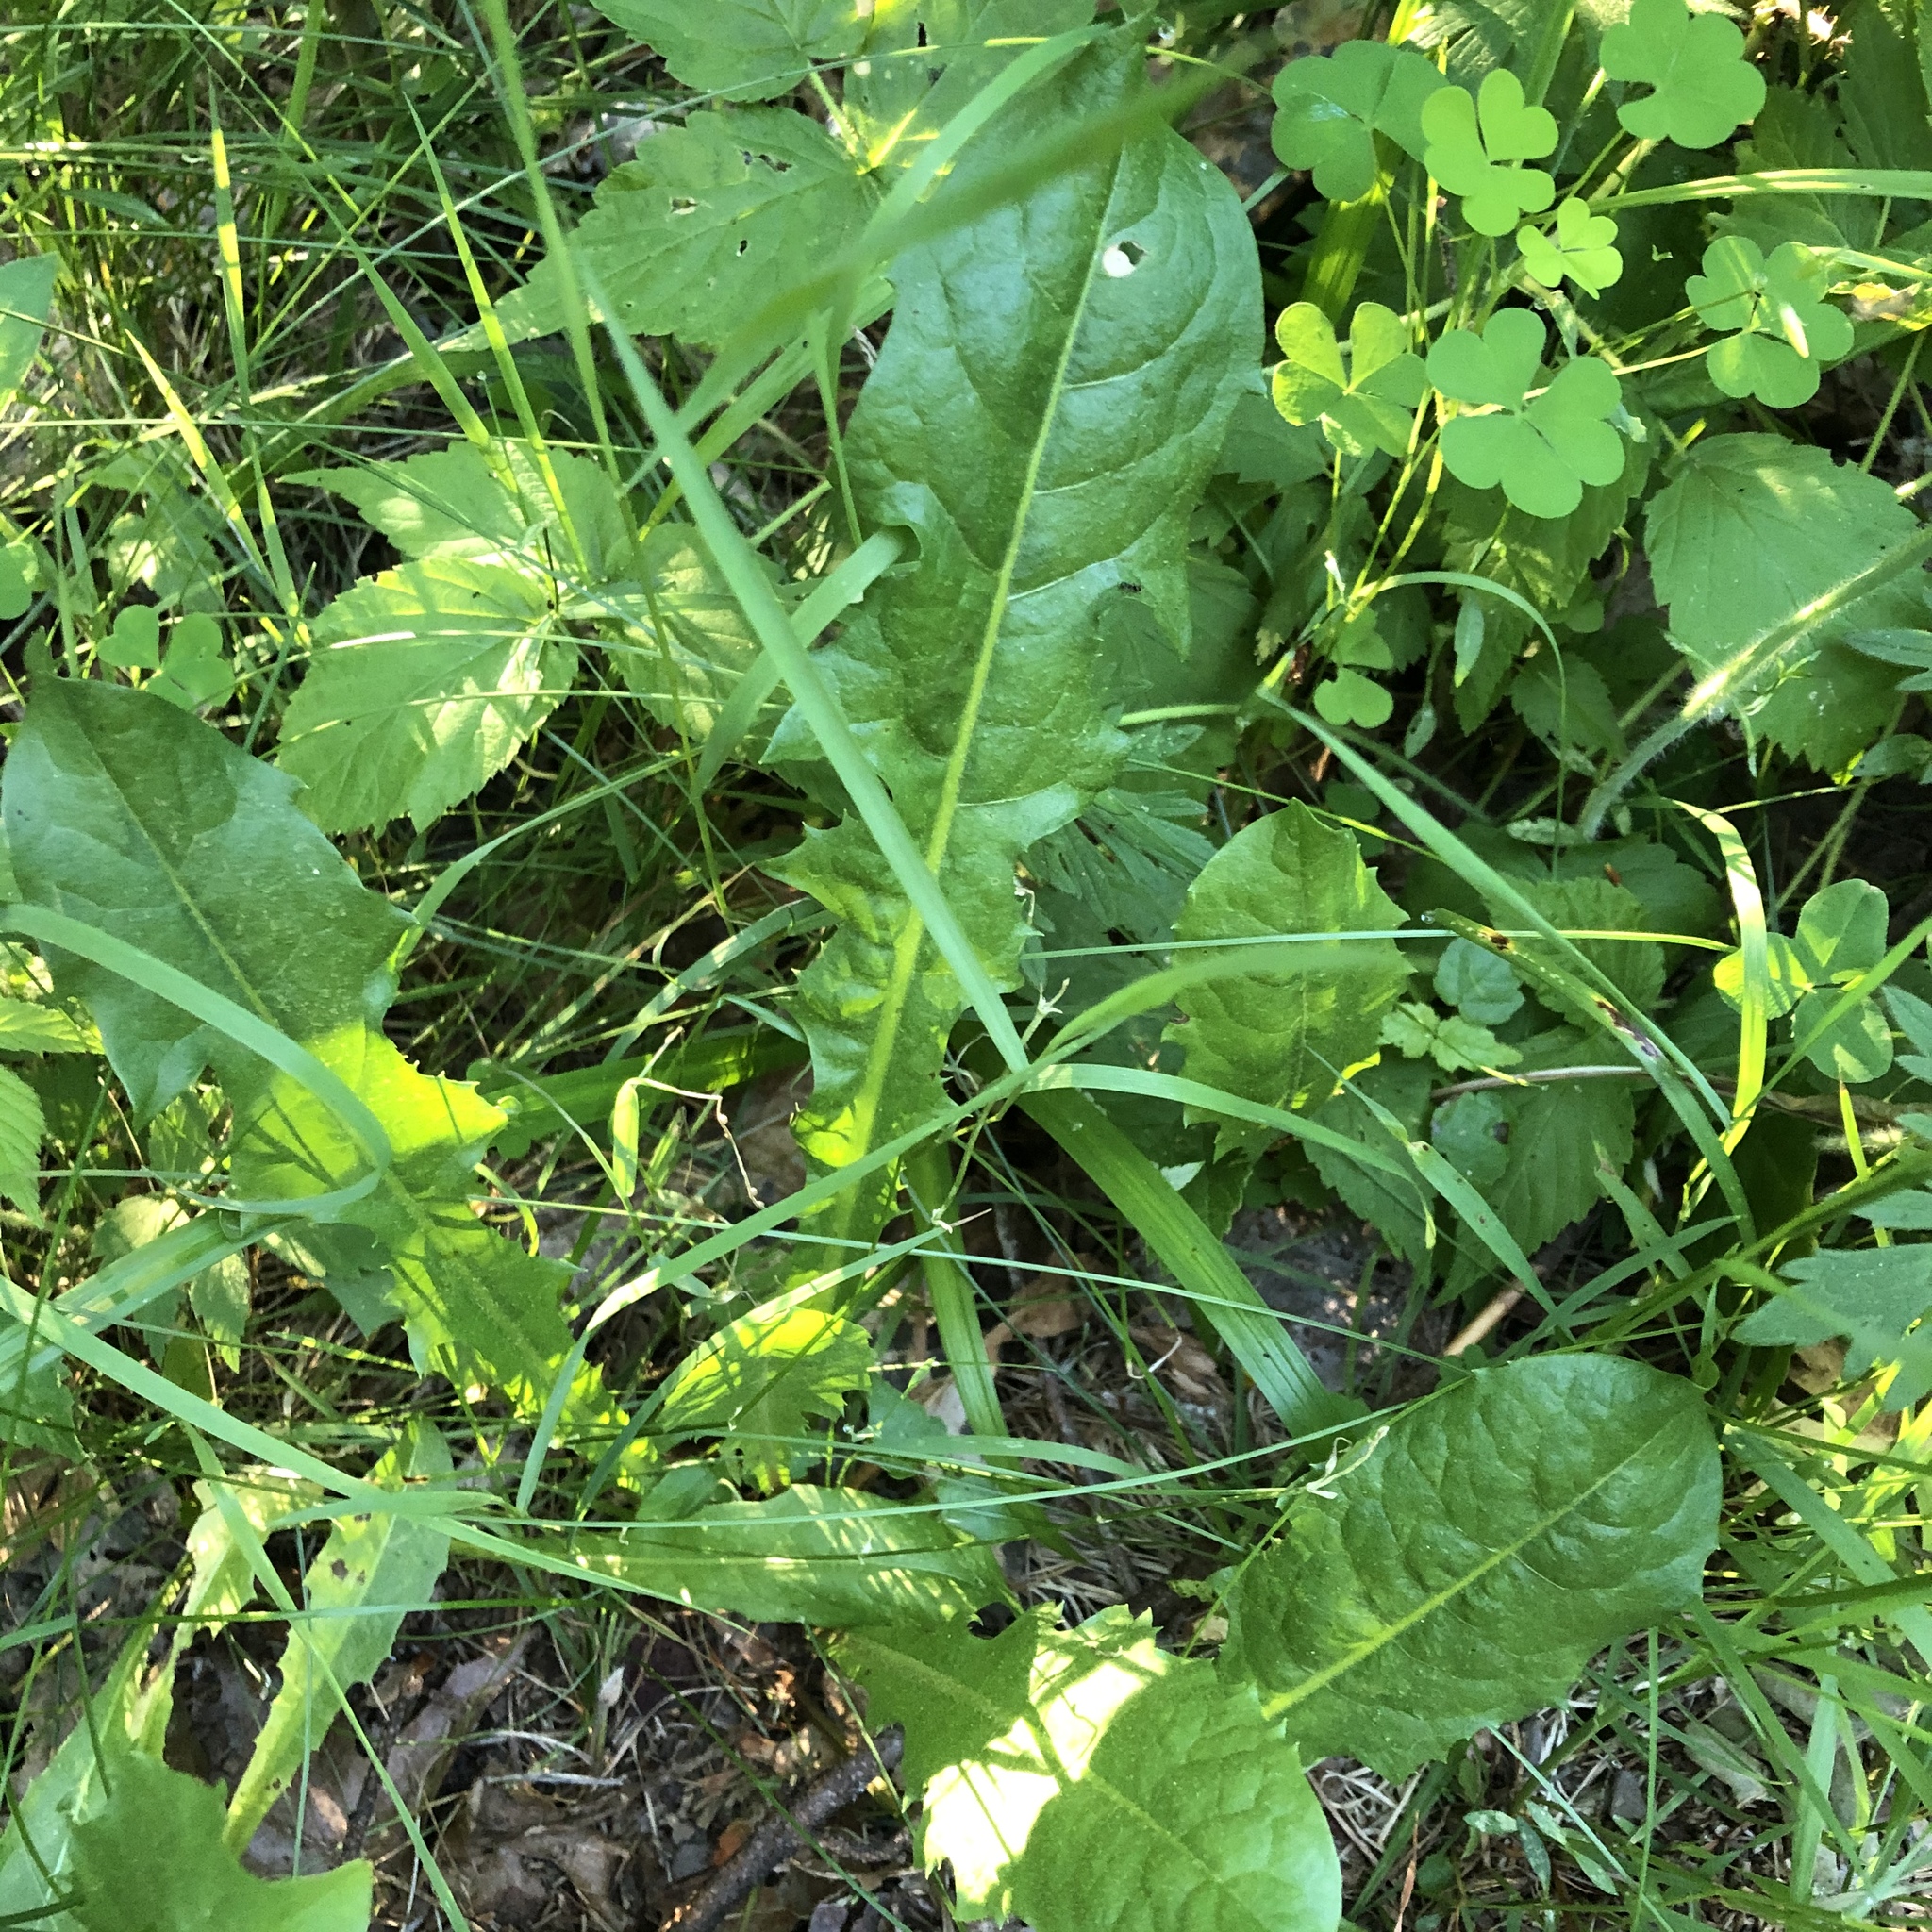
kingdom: Plantae
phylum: Tracheophyta
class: Magnoliopsida
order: Asterales
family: Asteraceae
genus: Taraxacum
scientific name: Taraxacum officinale
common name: Common dandelion
